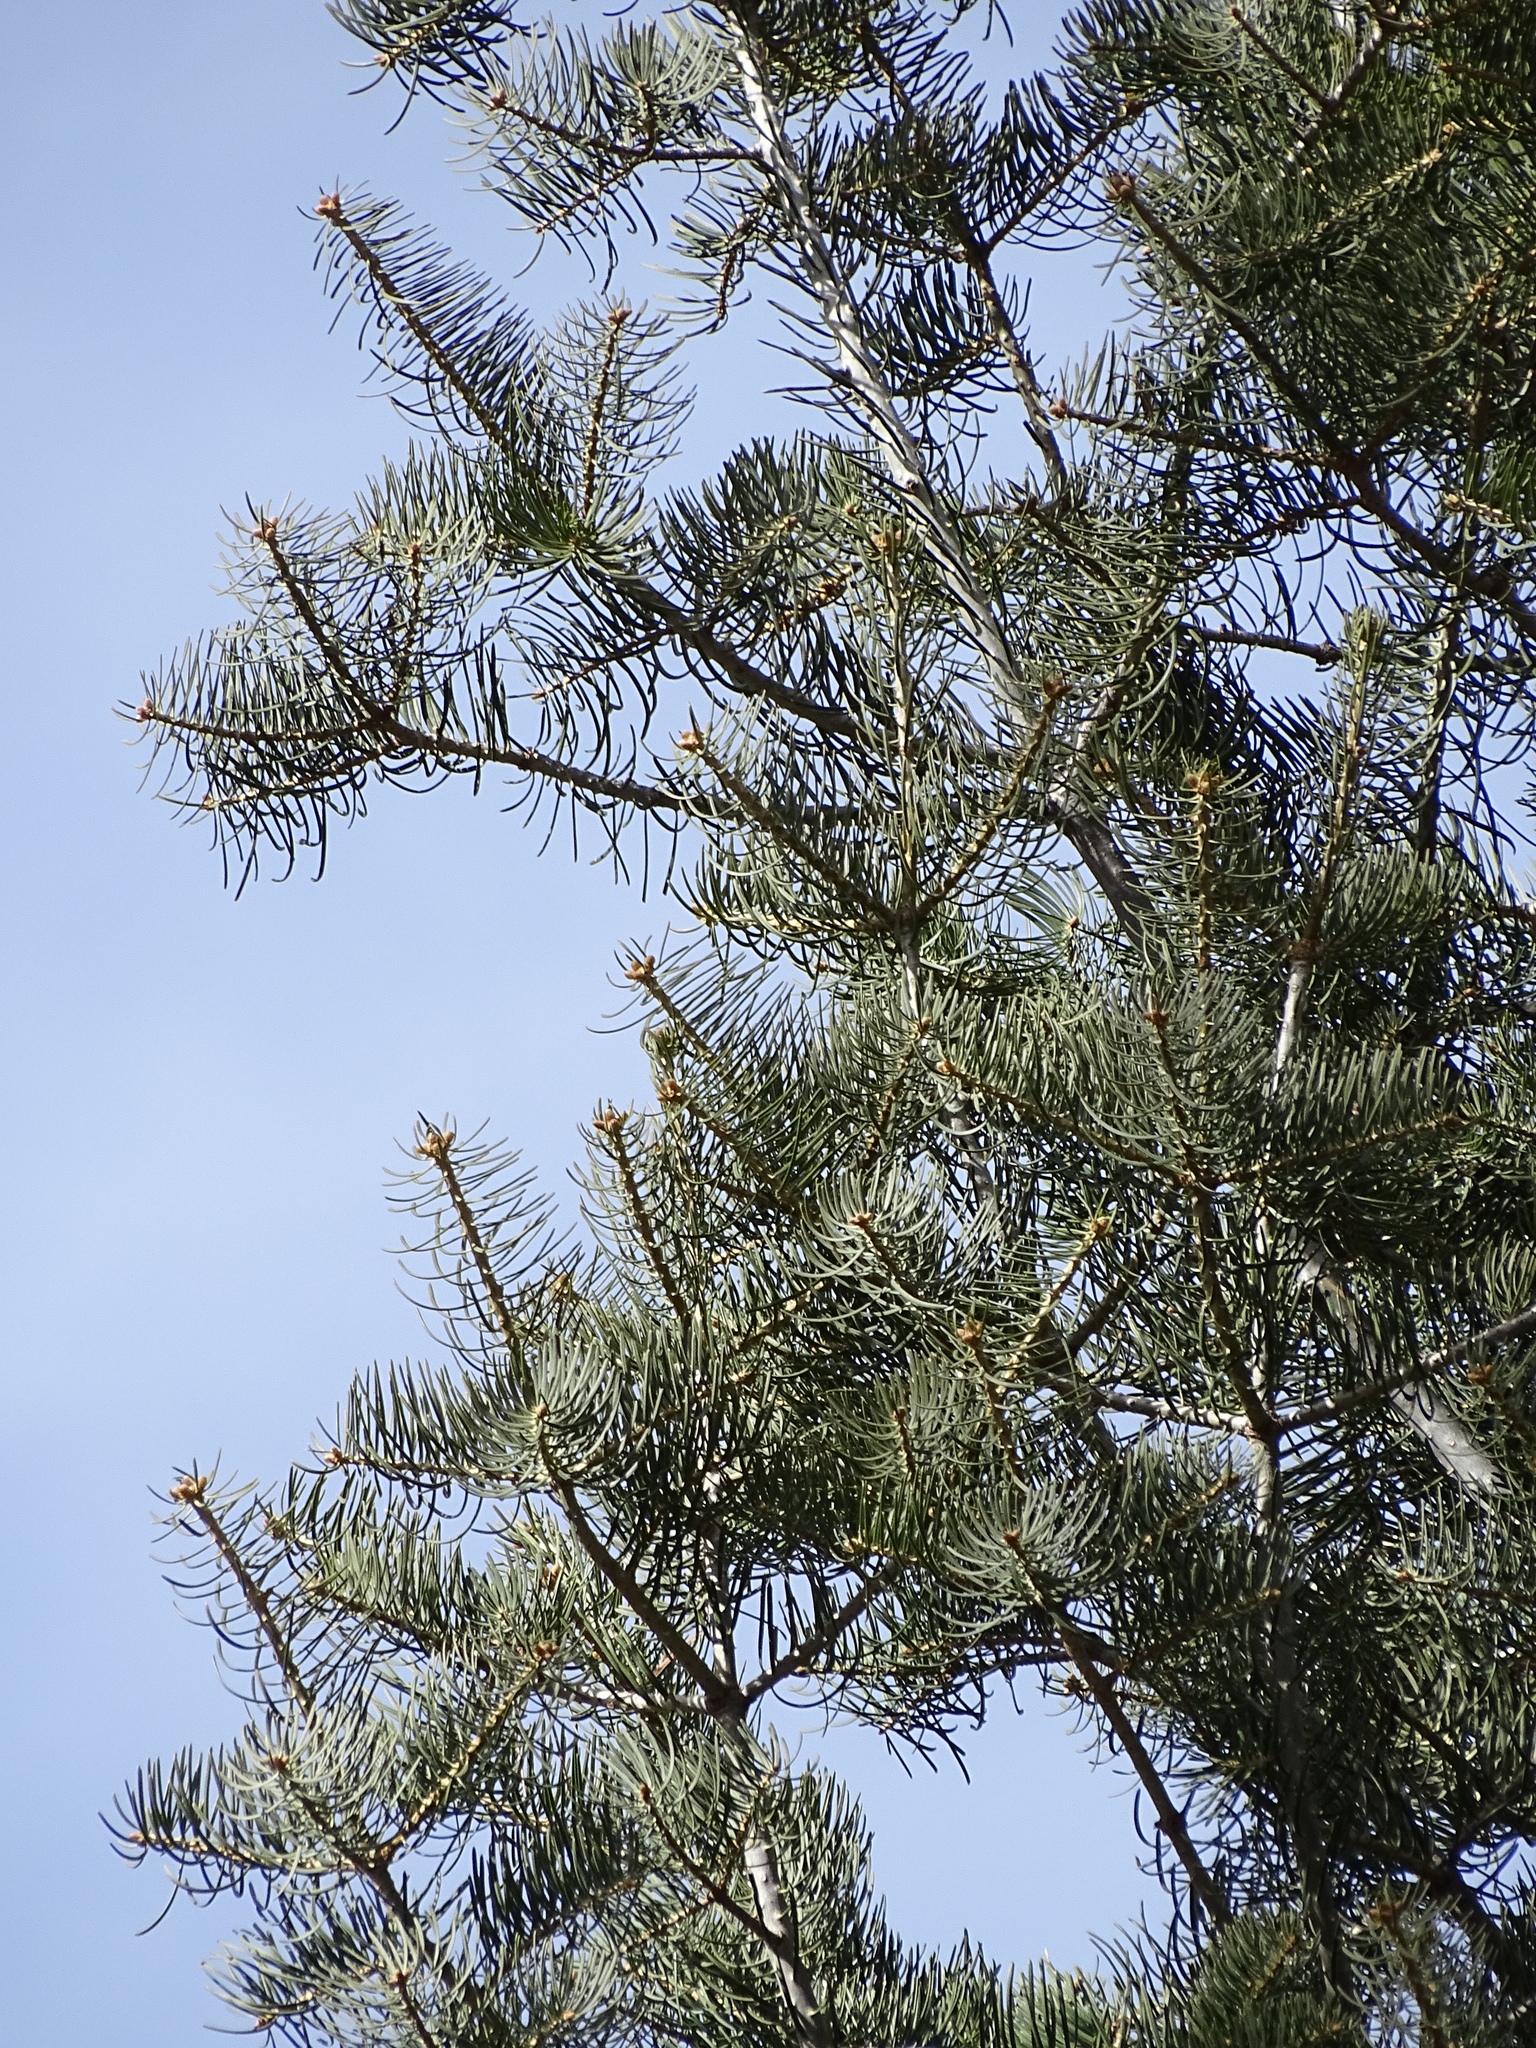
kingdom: Plantae
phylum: Tracheophyta
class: Pinopsida
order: Pinales
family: Pinaceae
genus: Pseudotsuga
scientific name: Pseudotsuga menziesii
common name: Douglas fir
